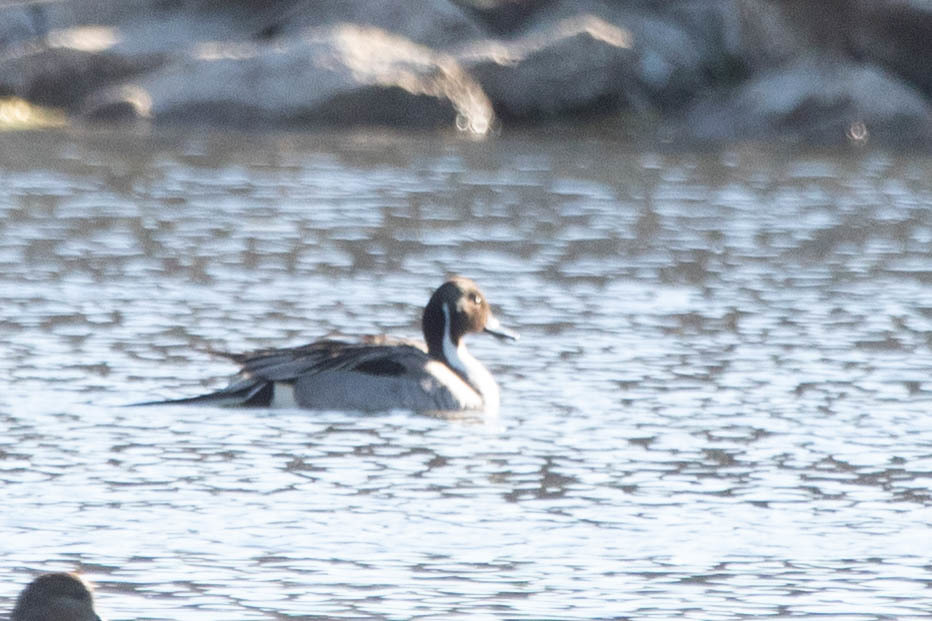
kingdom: Animalia
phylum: Chordata
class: Aves
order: Anseriformes
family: Anatidae
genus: Anas
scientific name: Anas acuta
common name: Northern pintail
